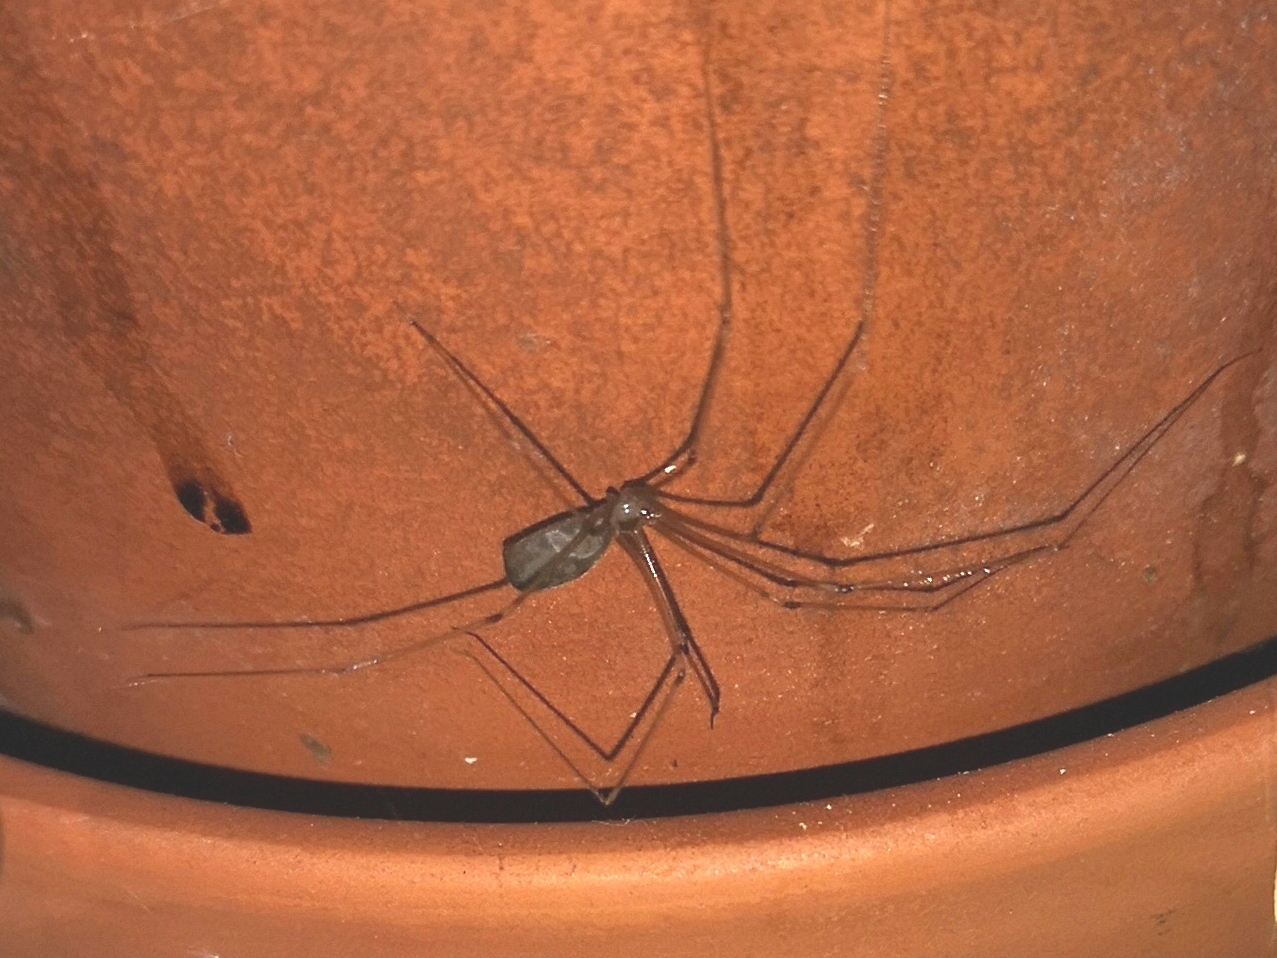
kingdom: Animalia
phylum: Arthropoda
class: Arachnida
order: Araneae
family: Pholcidae
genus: Pholcus
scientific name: Pholcus phalangioides
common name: Longbodied cellar spider
